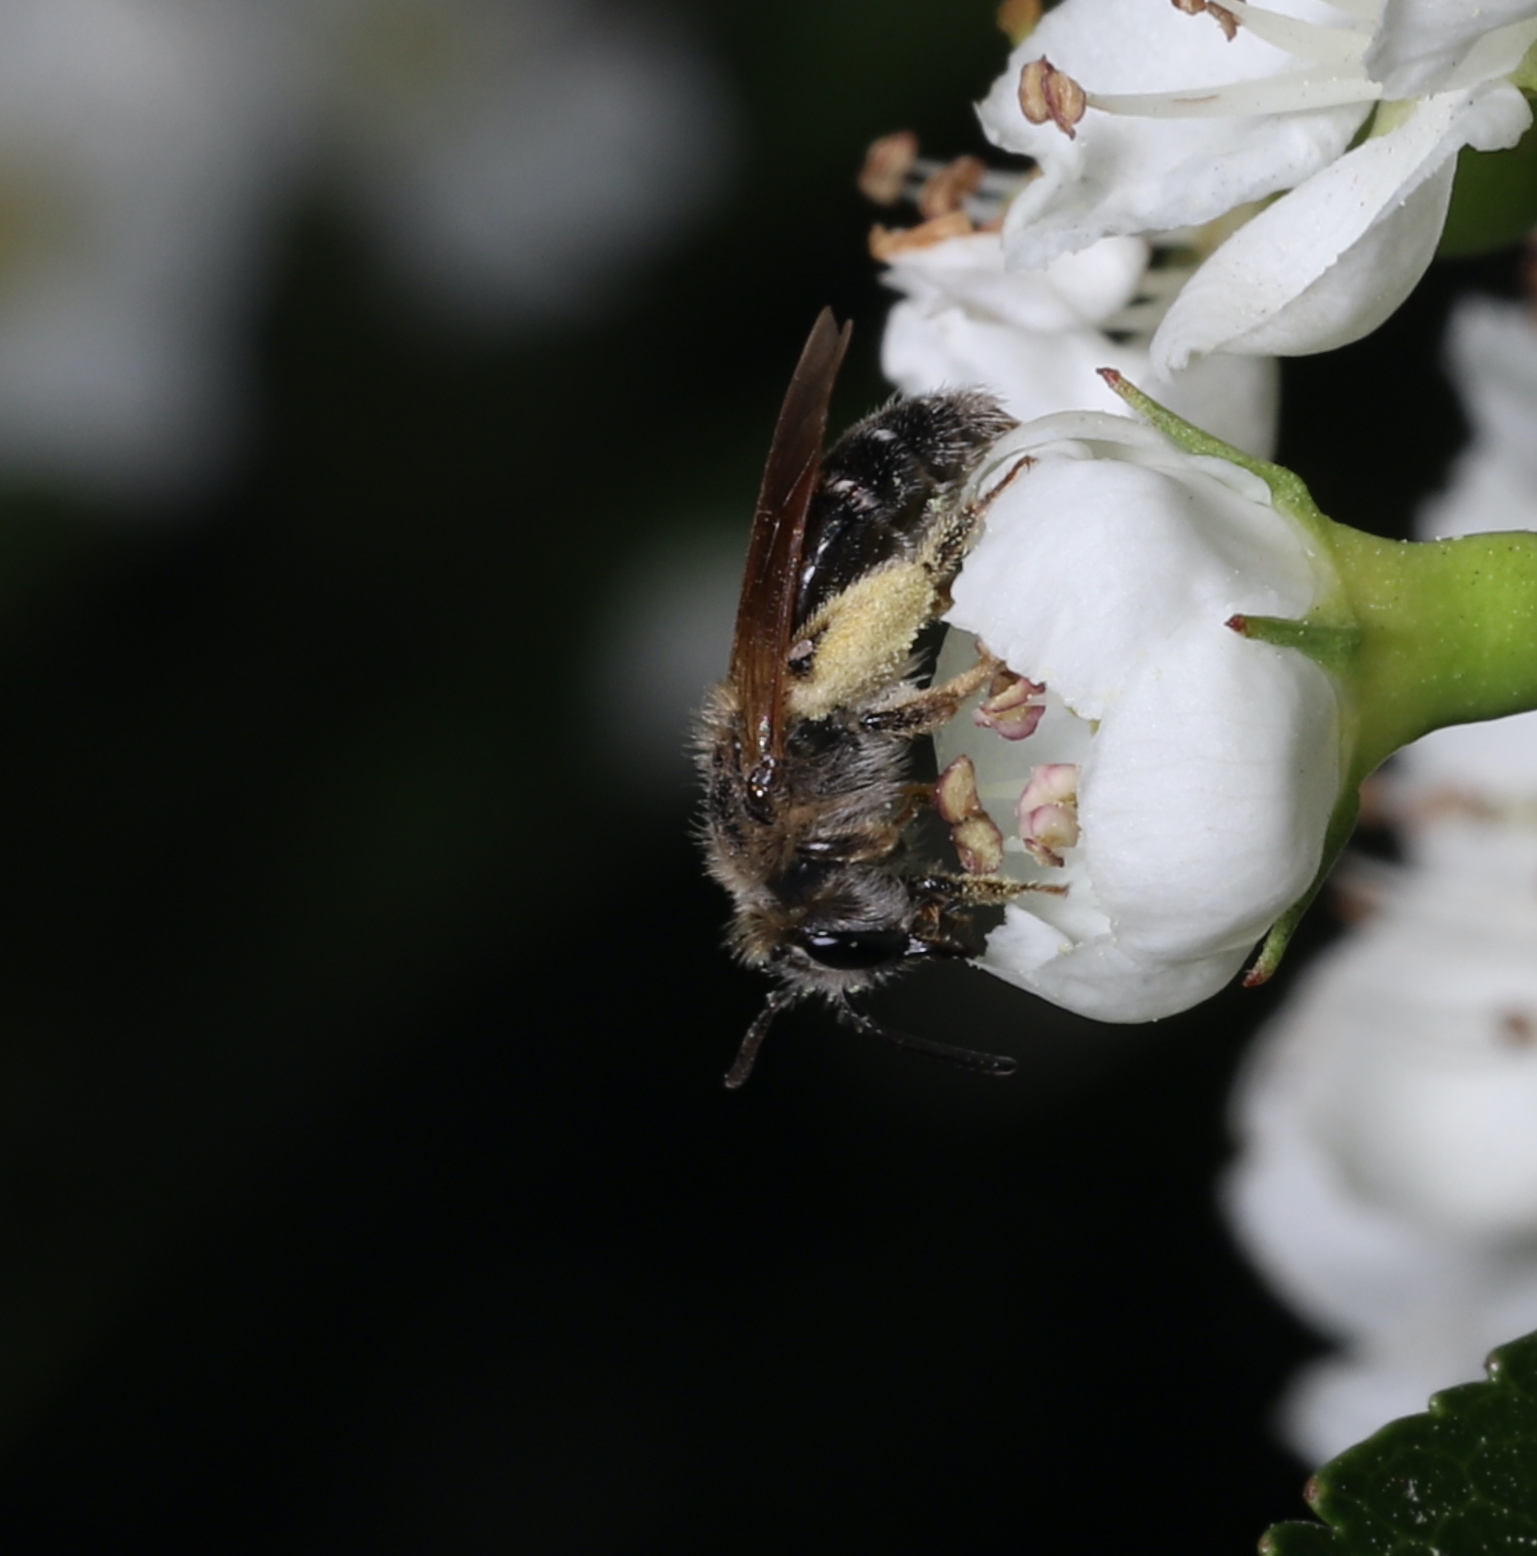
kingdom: Animalia
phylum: Arthropoda
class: Insecta
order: Hymenoptera
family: Andrenidae
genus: Andrena
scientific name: Andrena
